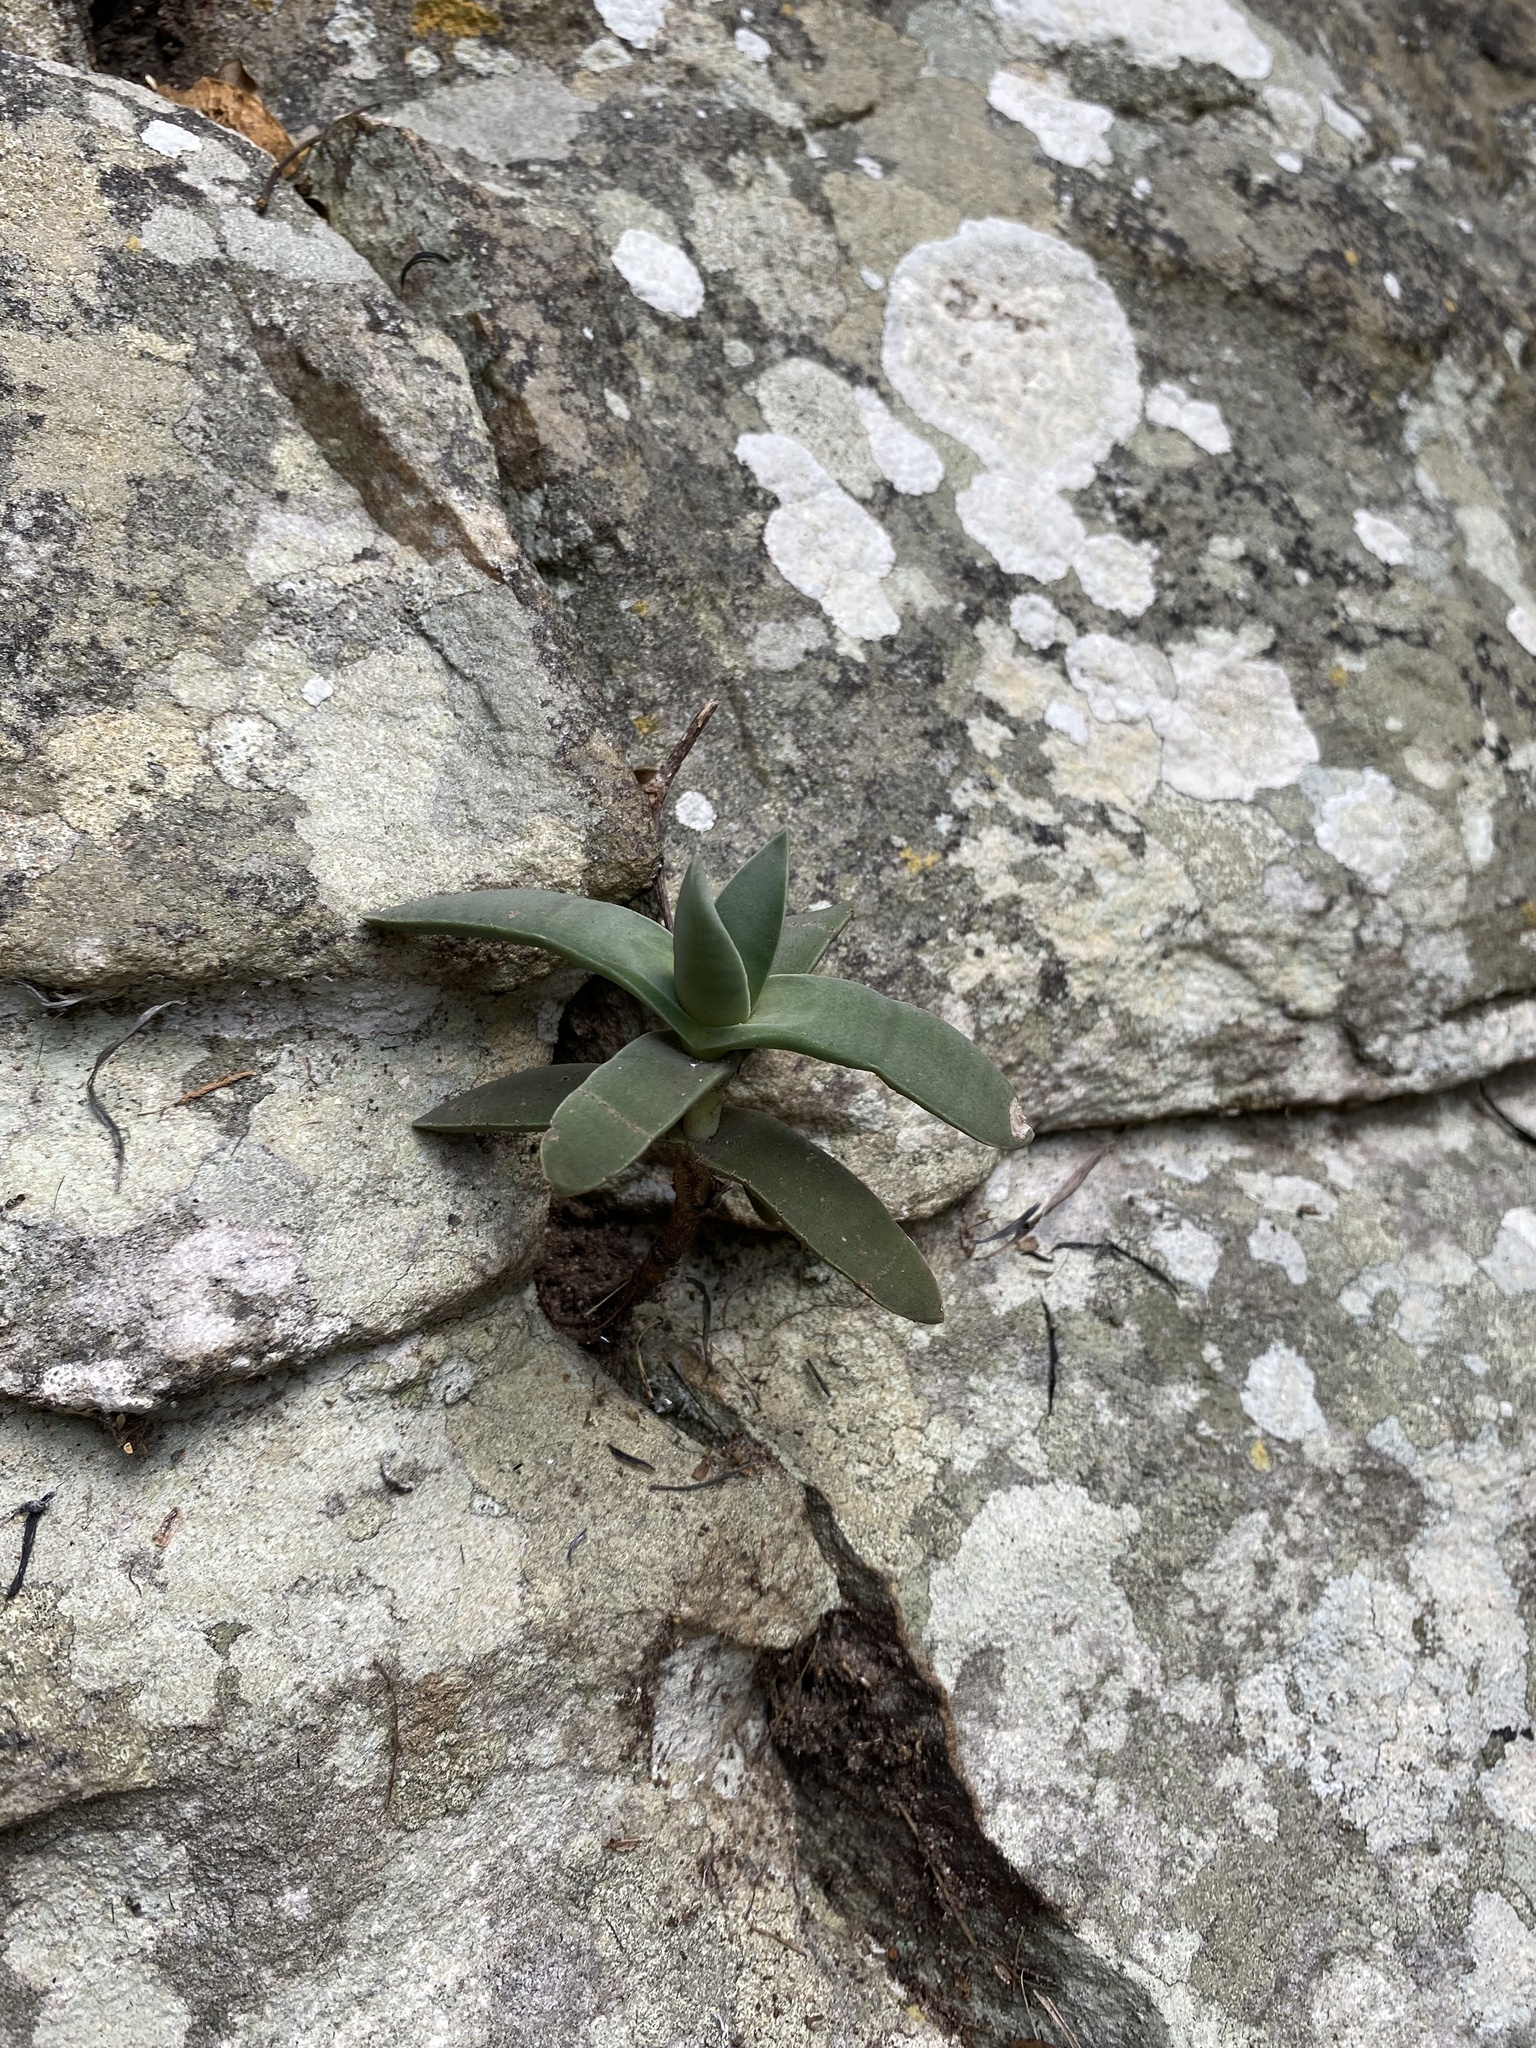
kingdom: Plantae
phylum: Tracheophyta
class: Magnoliopsida
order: Saxifragales
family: Crassulaceae
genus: Crassula
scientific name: Crassula perfoliata
